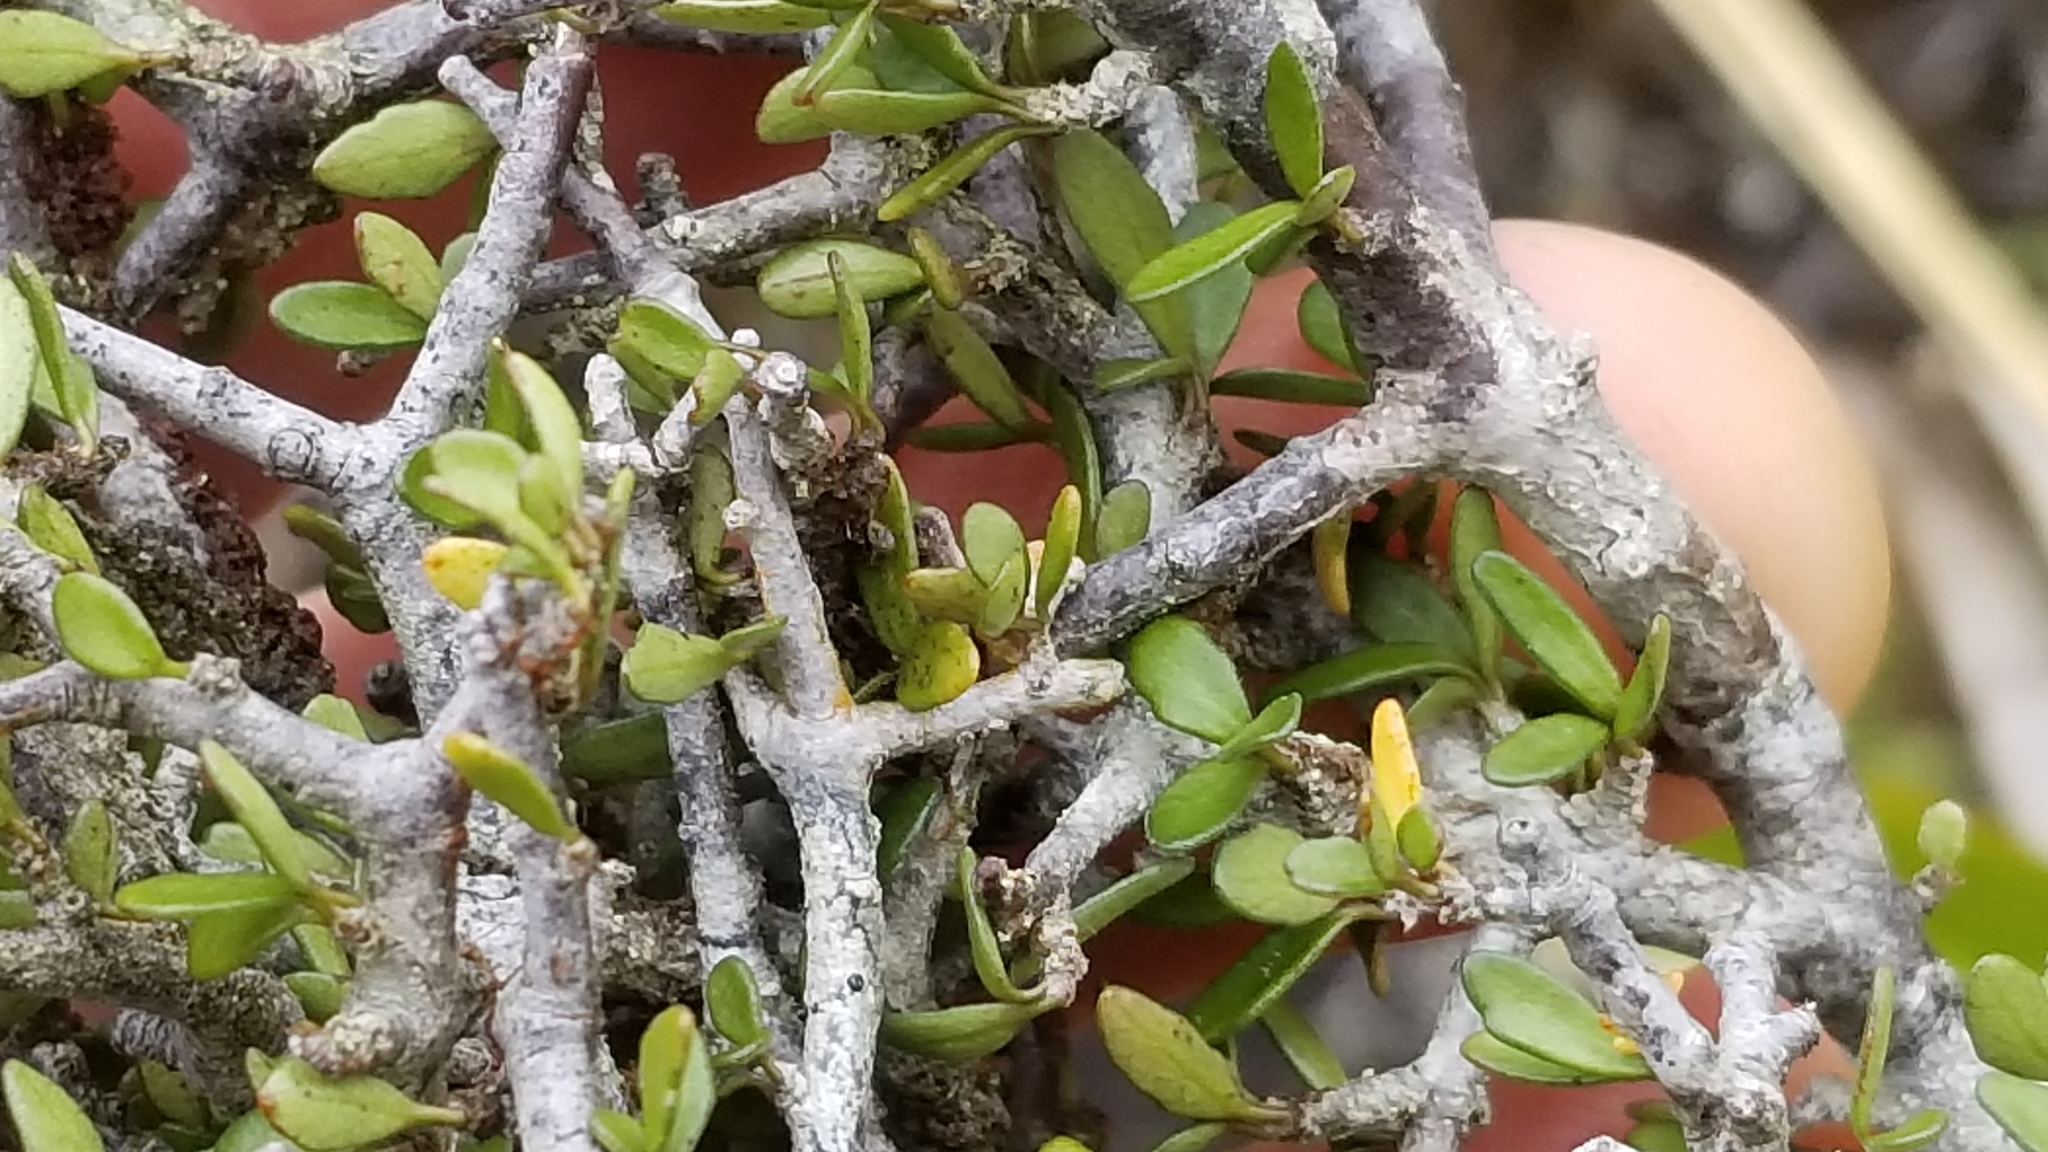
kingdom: Plantae
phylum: Tracheophyta
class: Magnoliopsida
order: Apiales
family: Pittosporaceae
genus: Pittosporum
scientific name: Pittosporum rigidum
